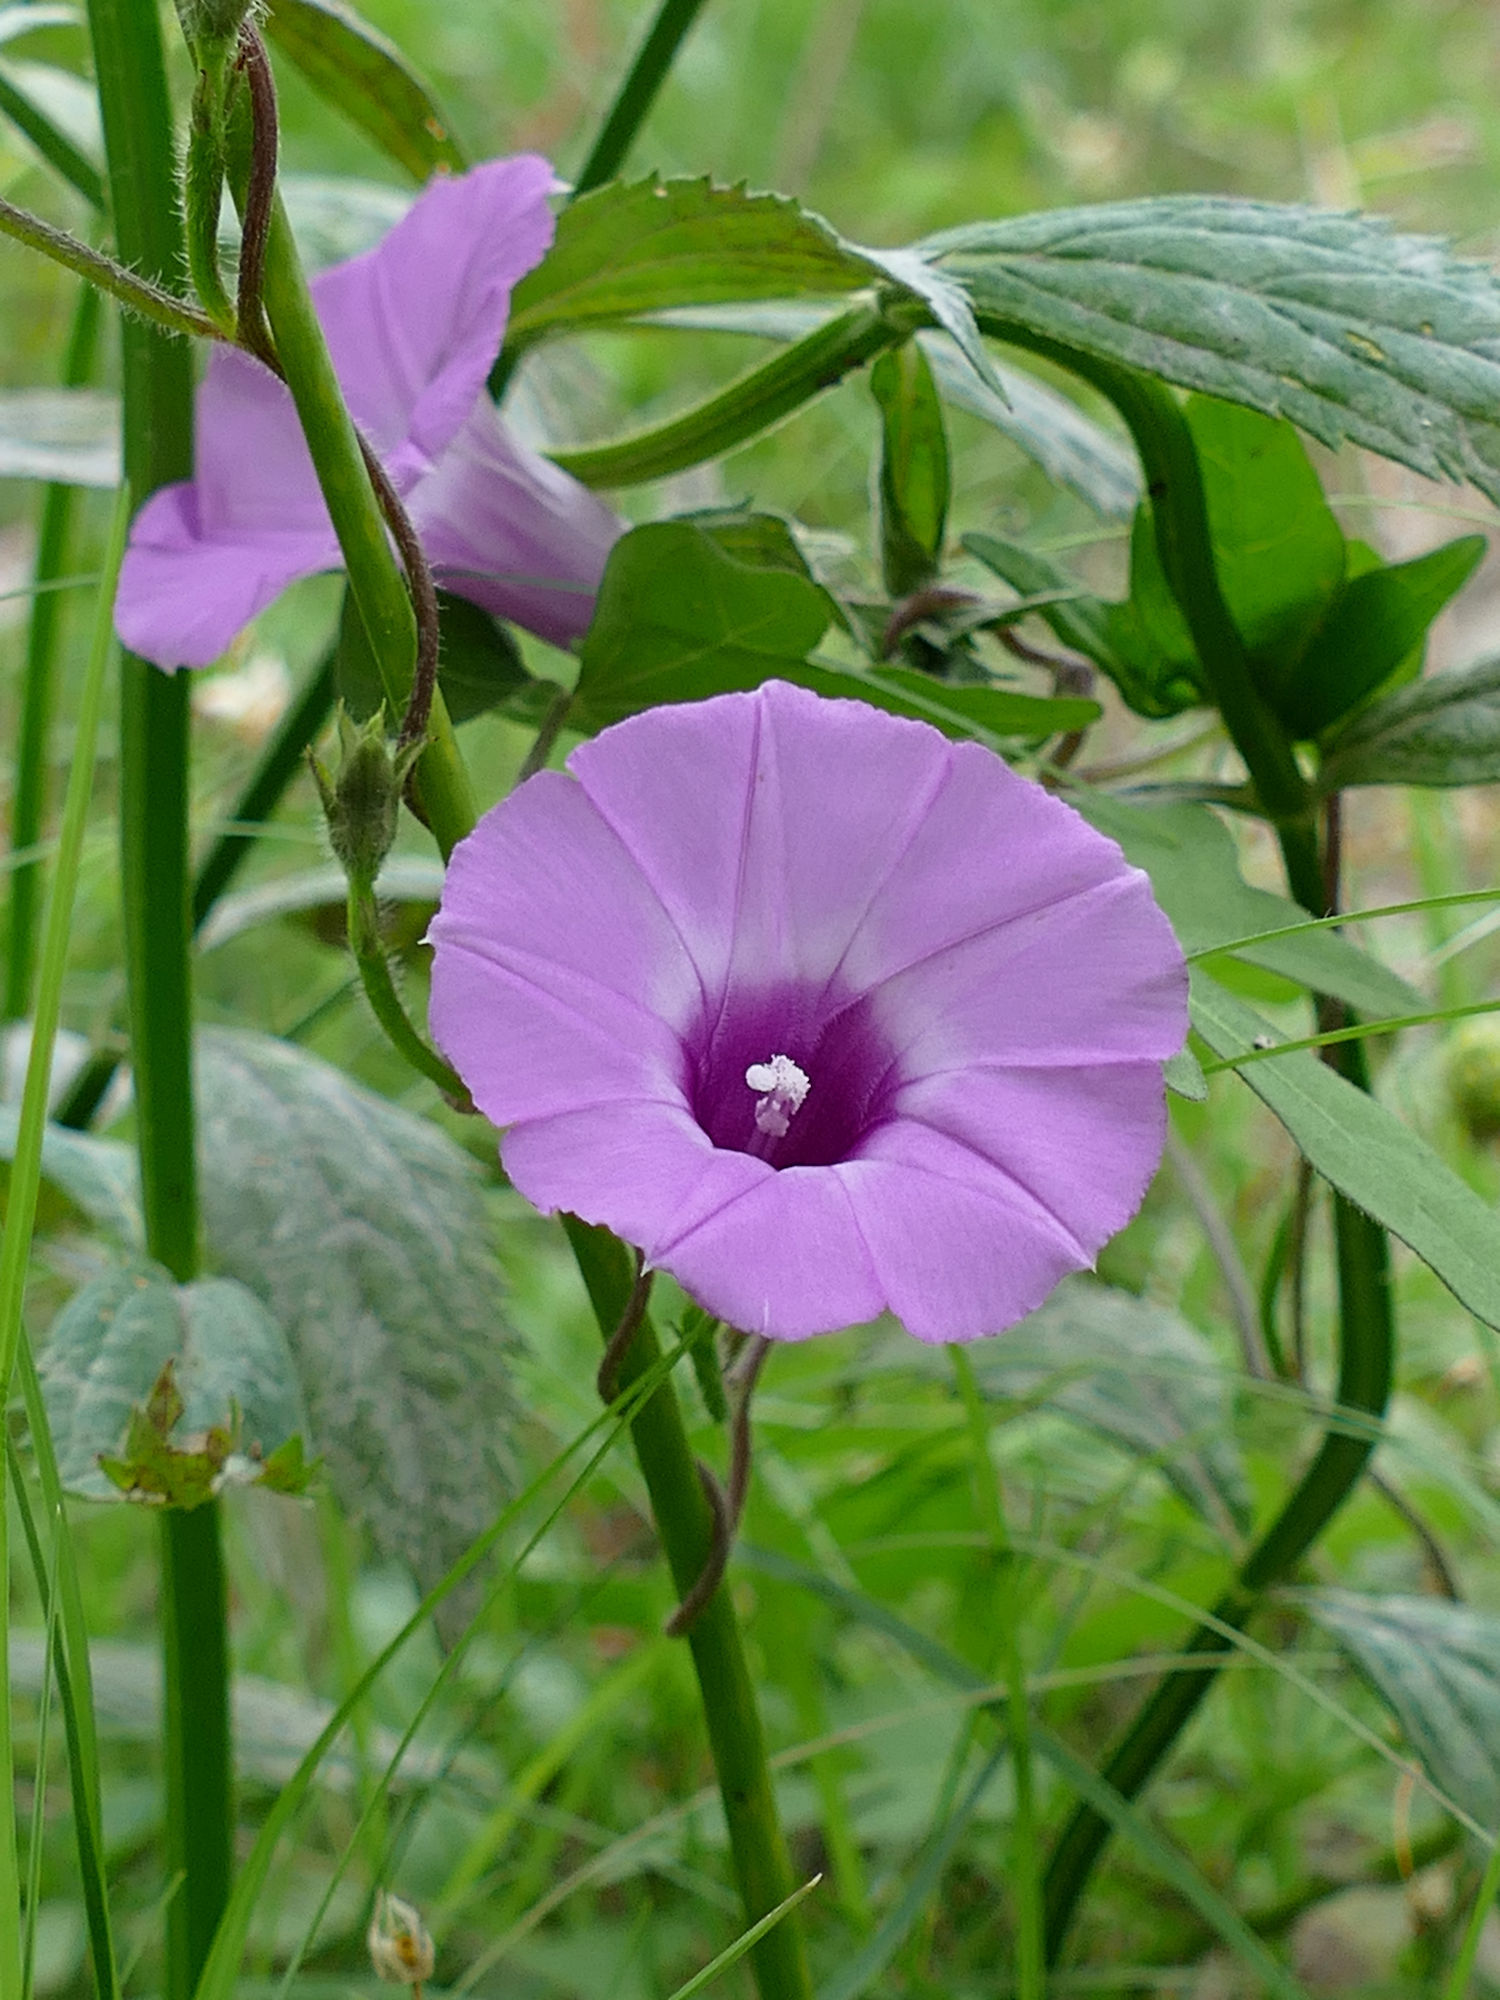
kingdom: Plantae
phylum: Tracheophyta
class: Magnoliopsida
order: Solanales
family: Convolvulaceae
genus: Ipomoea
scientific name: Ipomoea cordatotriloba
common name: Cotton morning glory
